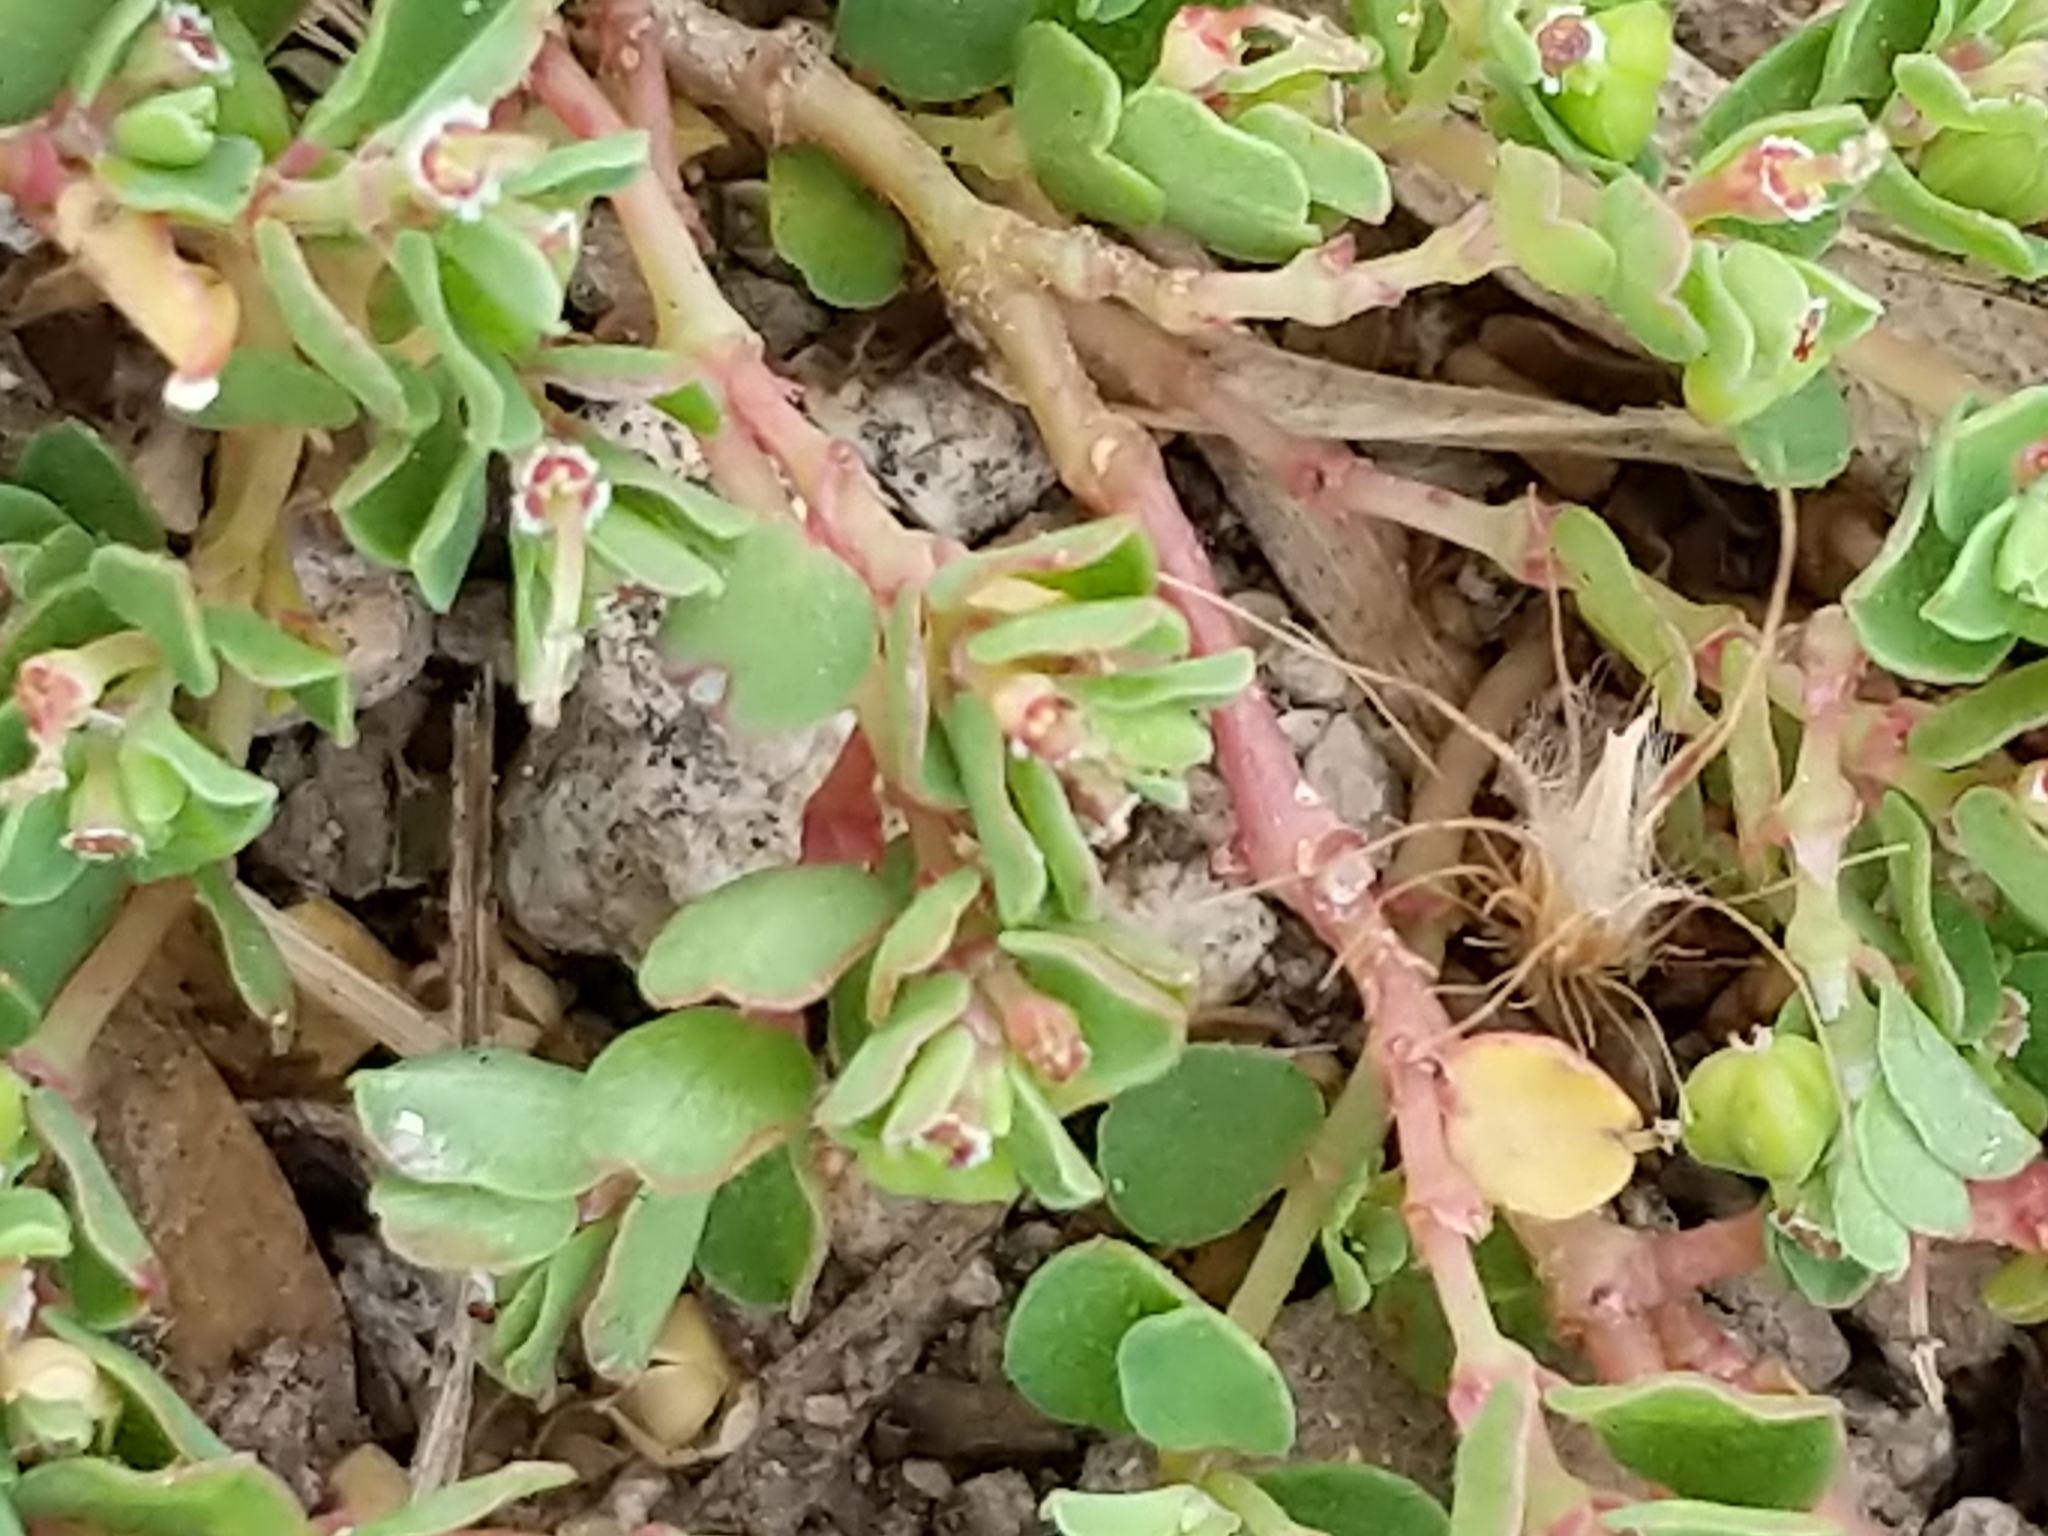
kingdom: Plantae
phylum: Tracheophyta
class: Magnoliopsida
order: Malpighiales
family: Euphorbiaceae
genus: Euphorbia
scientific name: Euphorbia serpens
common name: Matted sandmat
